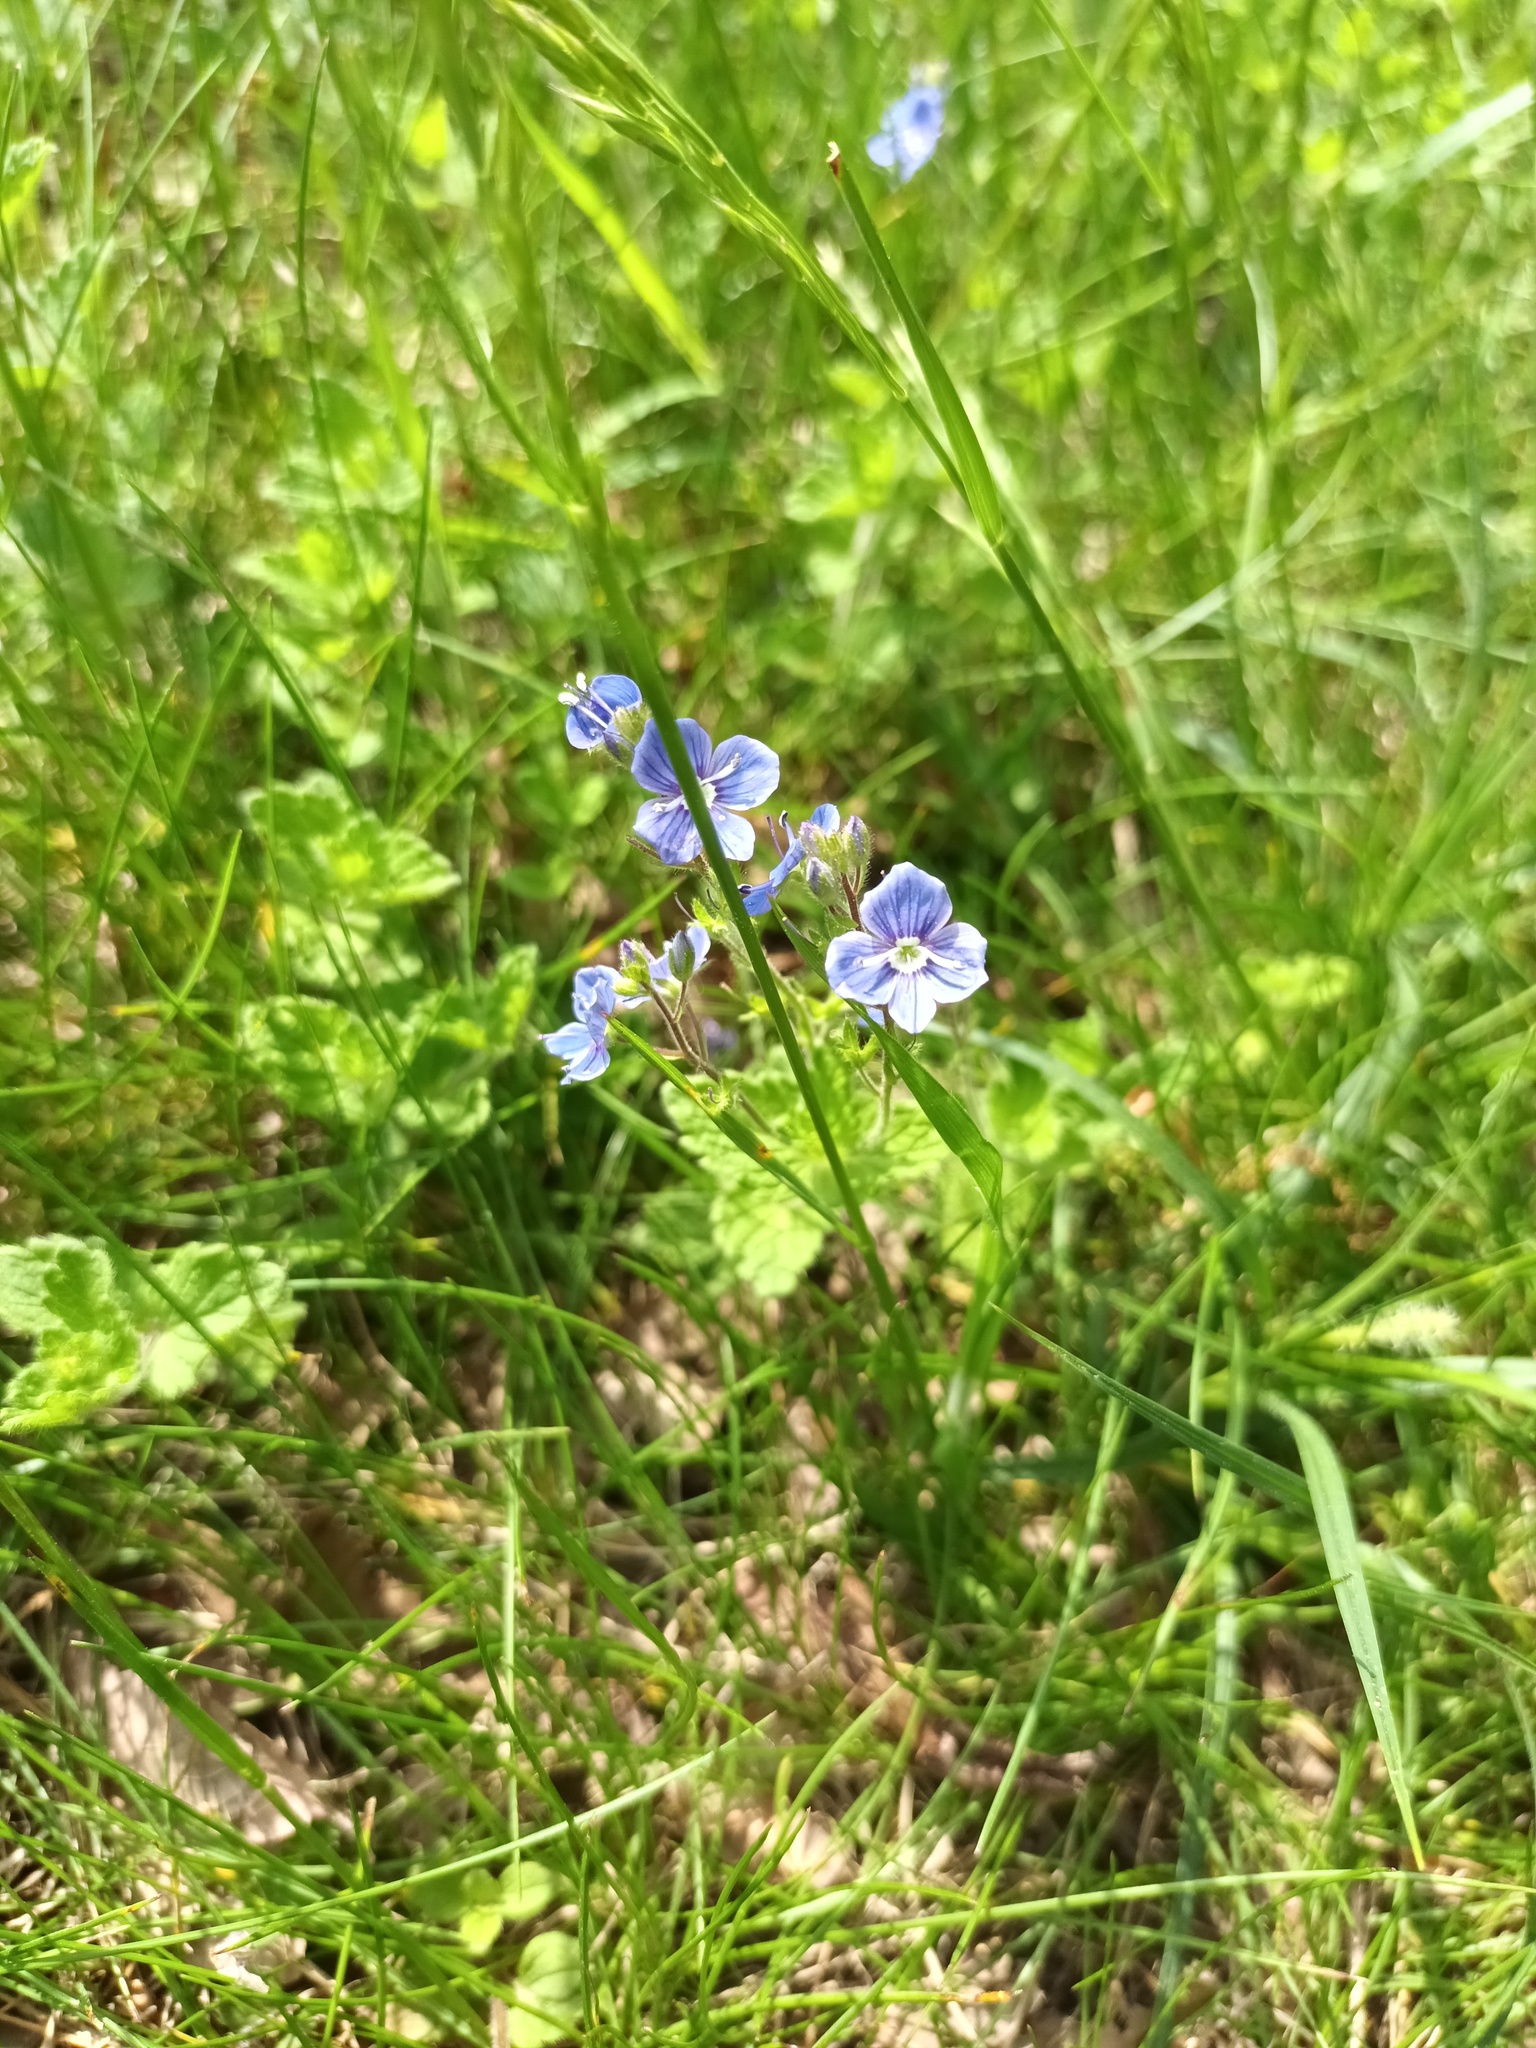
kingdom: Plantae
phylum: Tracheophyta
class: Magnoliopsida
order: Lamiales
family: Plantaginaceae
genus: Veronica
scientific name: Veronica chamaedrys
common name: Germander speedwell
